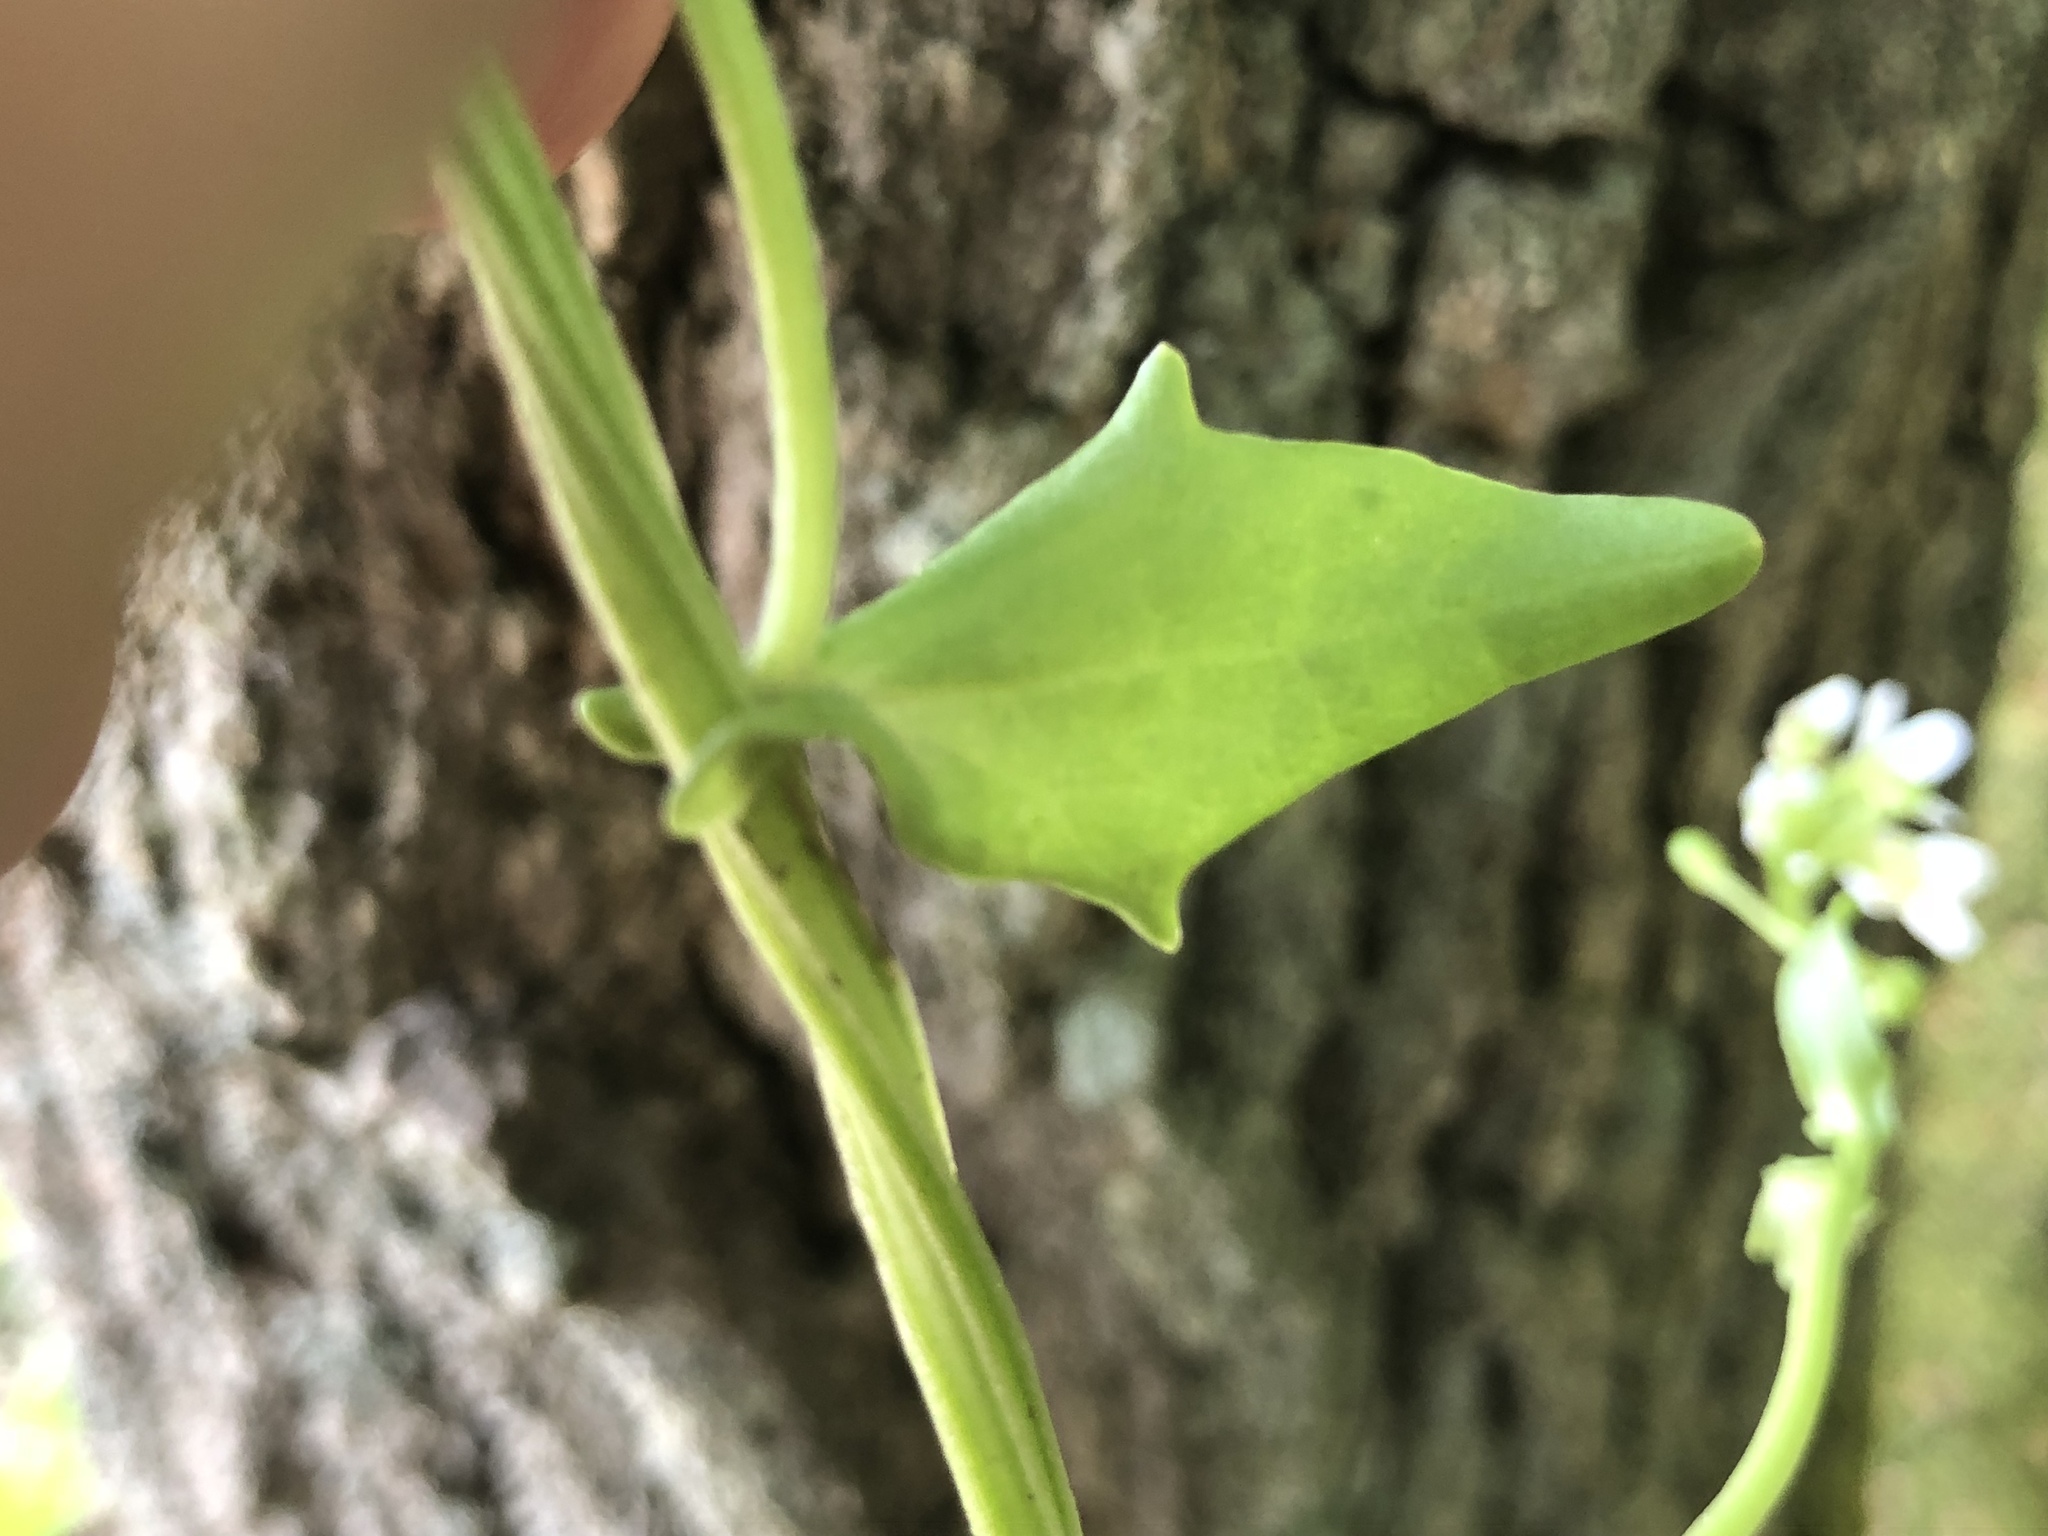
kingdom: Plantae
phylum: Tracheophyta
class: Magnoliopsida
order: Brassicales
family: Brassicaceae
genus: Cochlearia
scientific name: Cochlearia officinalis
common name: Scurvy-grass
